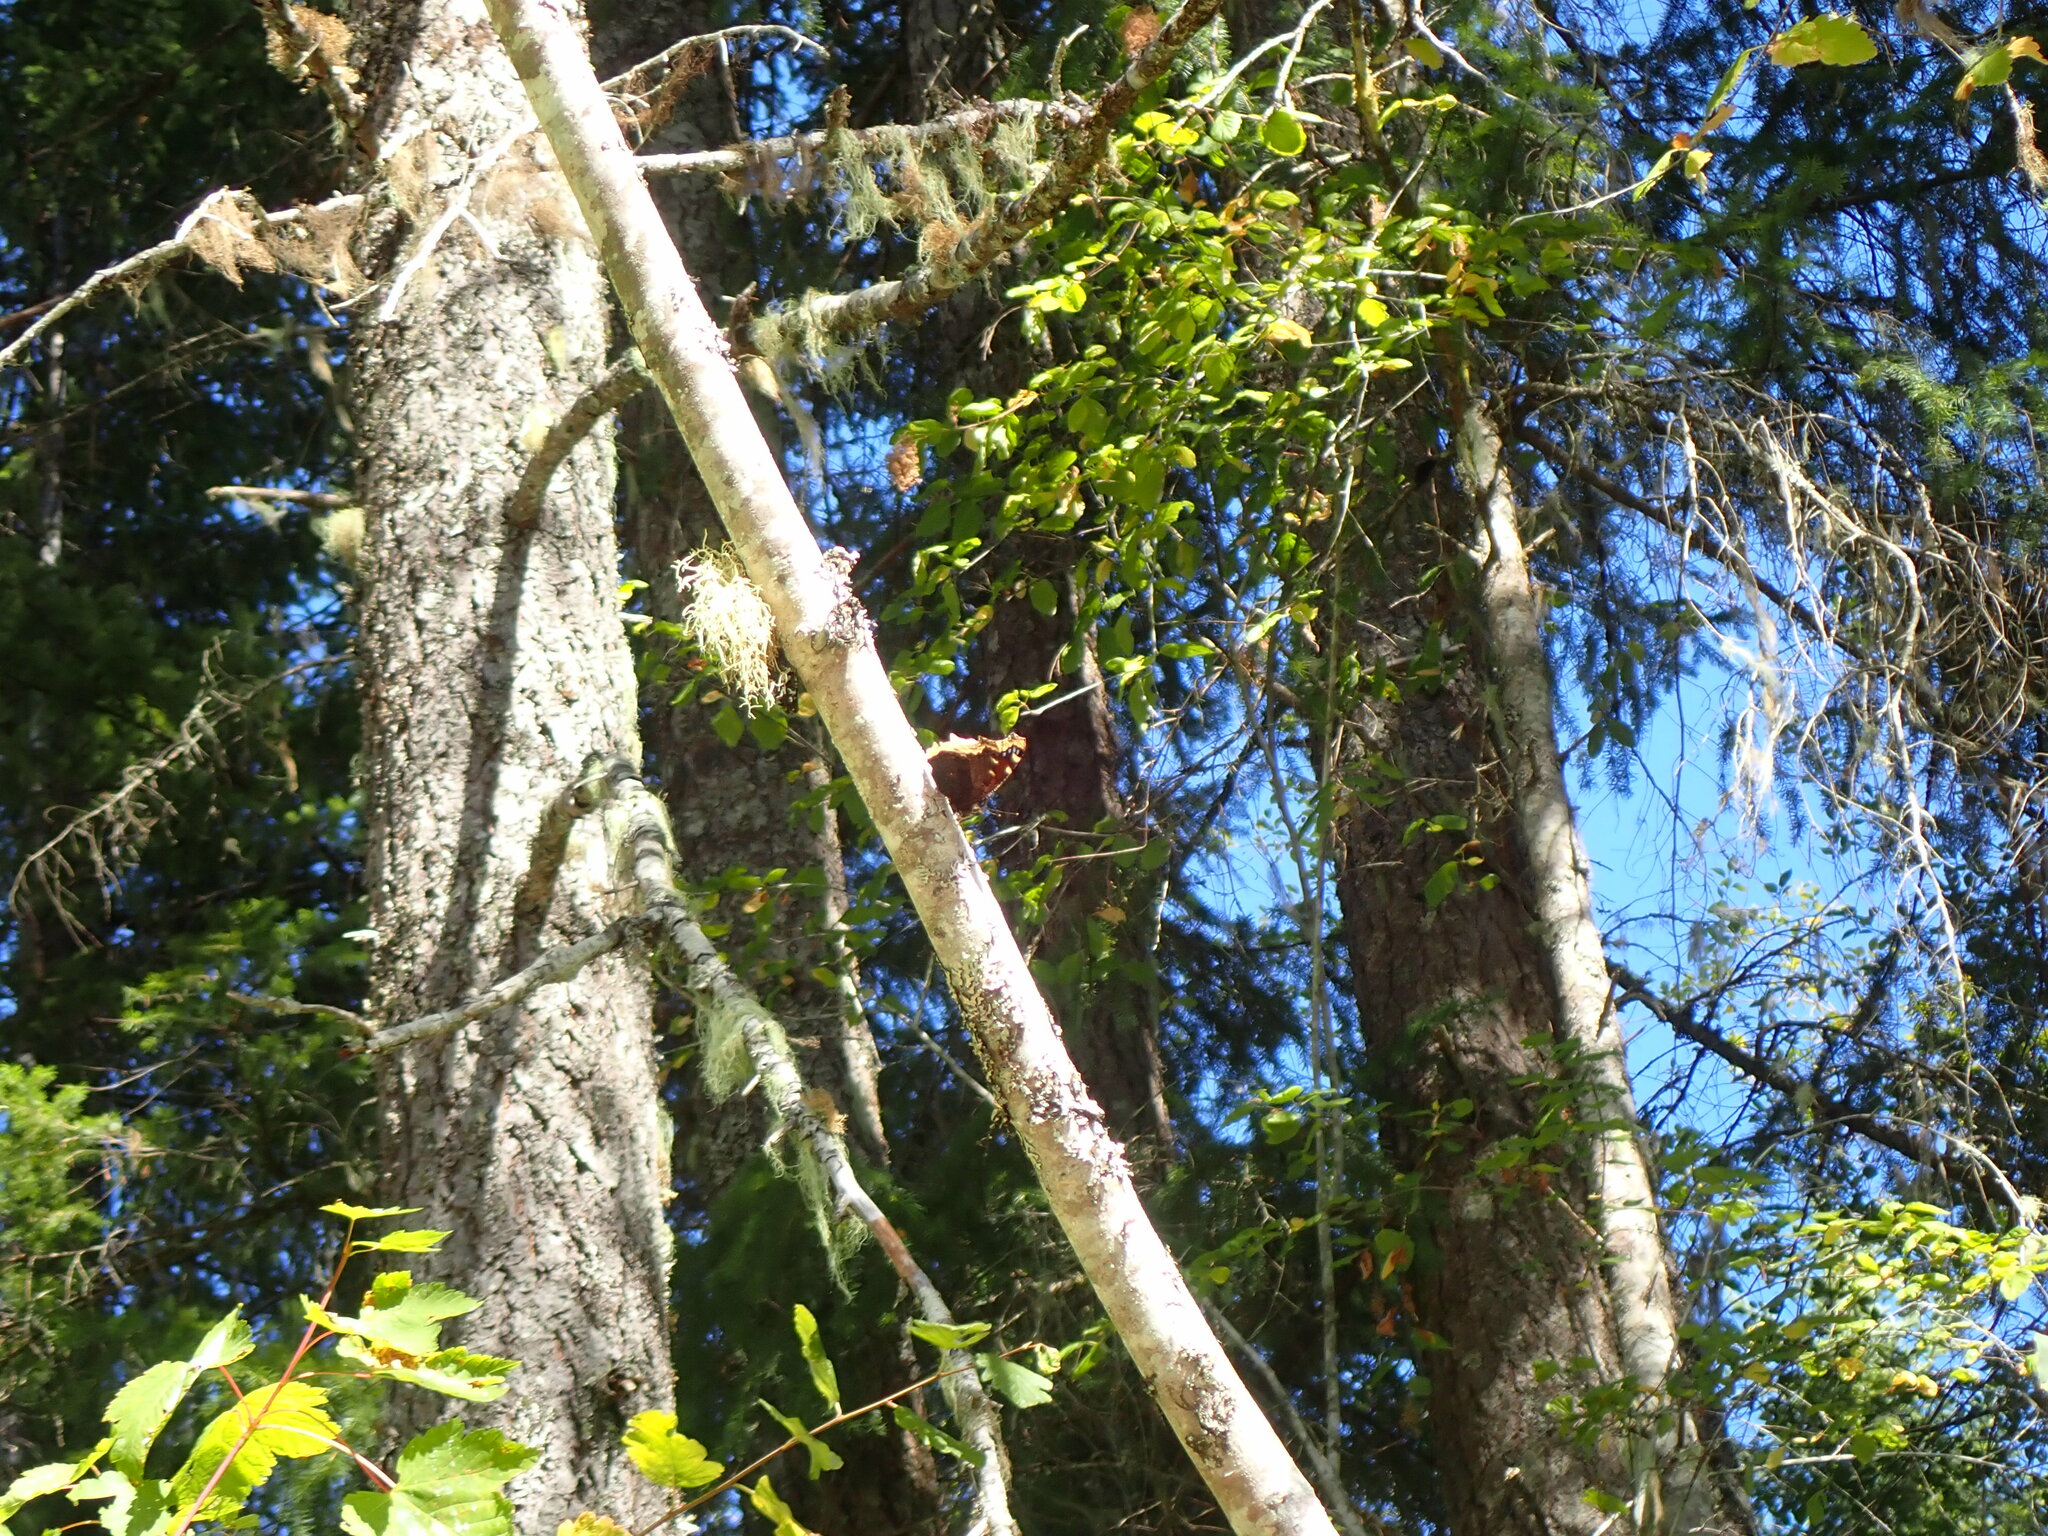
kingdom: Animalia
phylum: Arthropoda
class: Insecta
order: Lepidoptera
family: Nymphalidae
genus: Nymphalis
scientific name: Nymphalis antiopa
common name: Camberwell beauty
